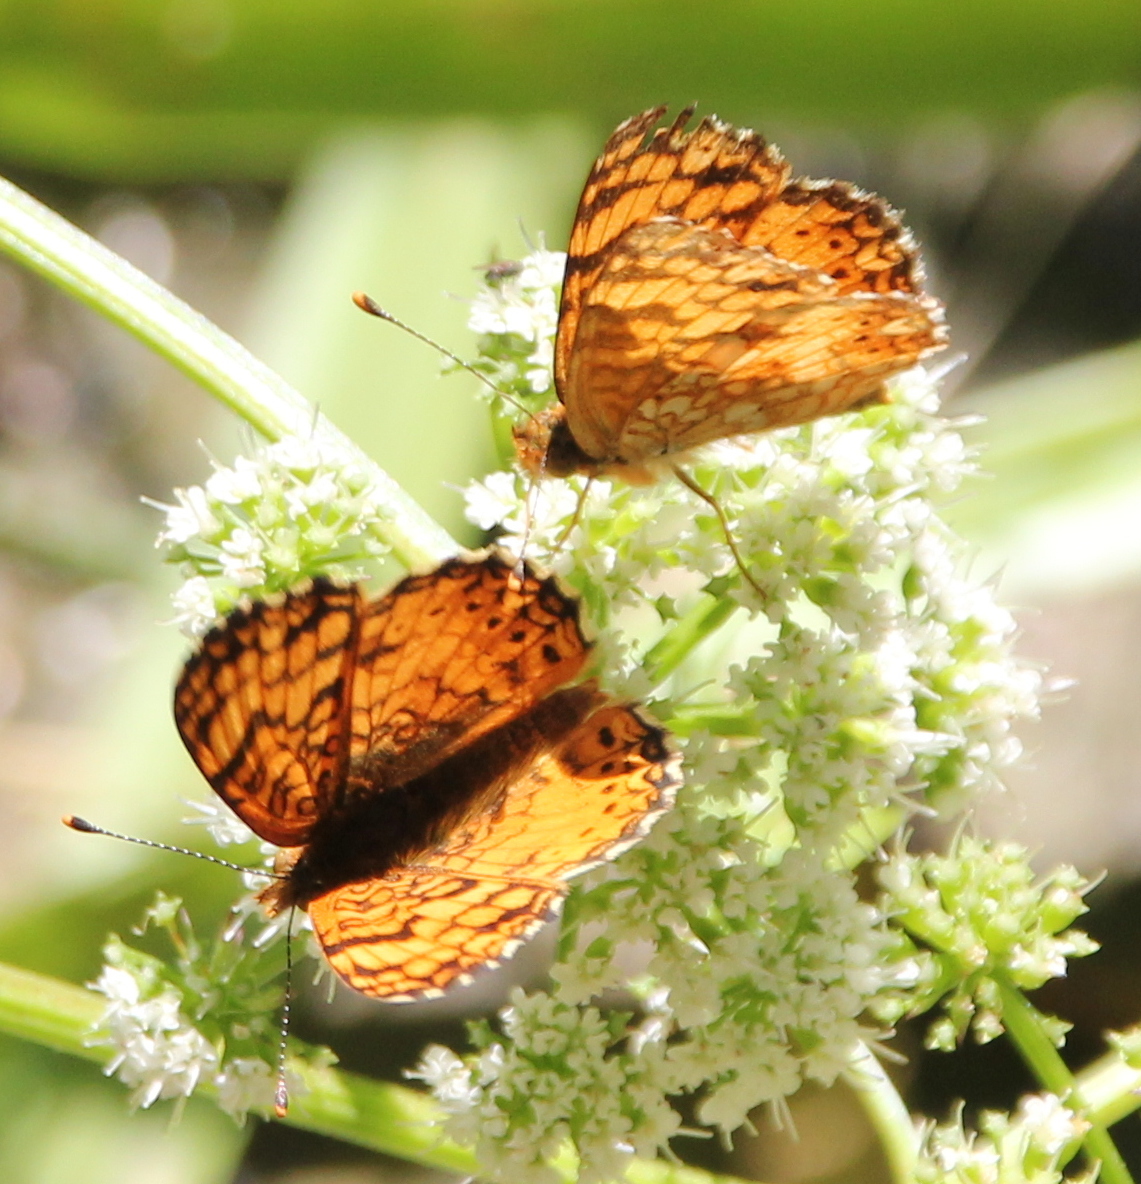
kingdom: Animalia
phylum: Arthropoda
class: Insecta
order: Lepidoptera
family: Nymphalidae
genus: Eresia
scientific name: Eresia aveyrona
